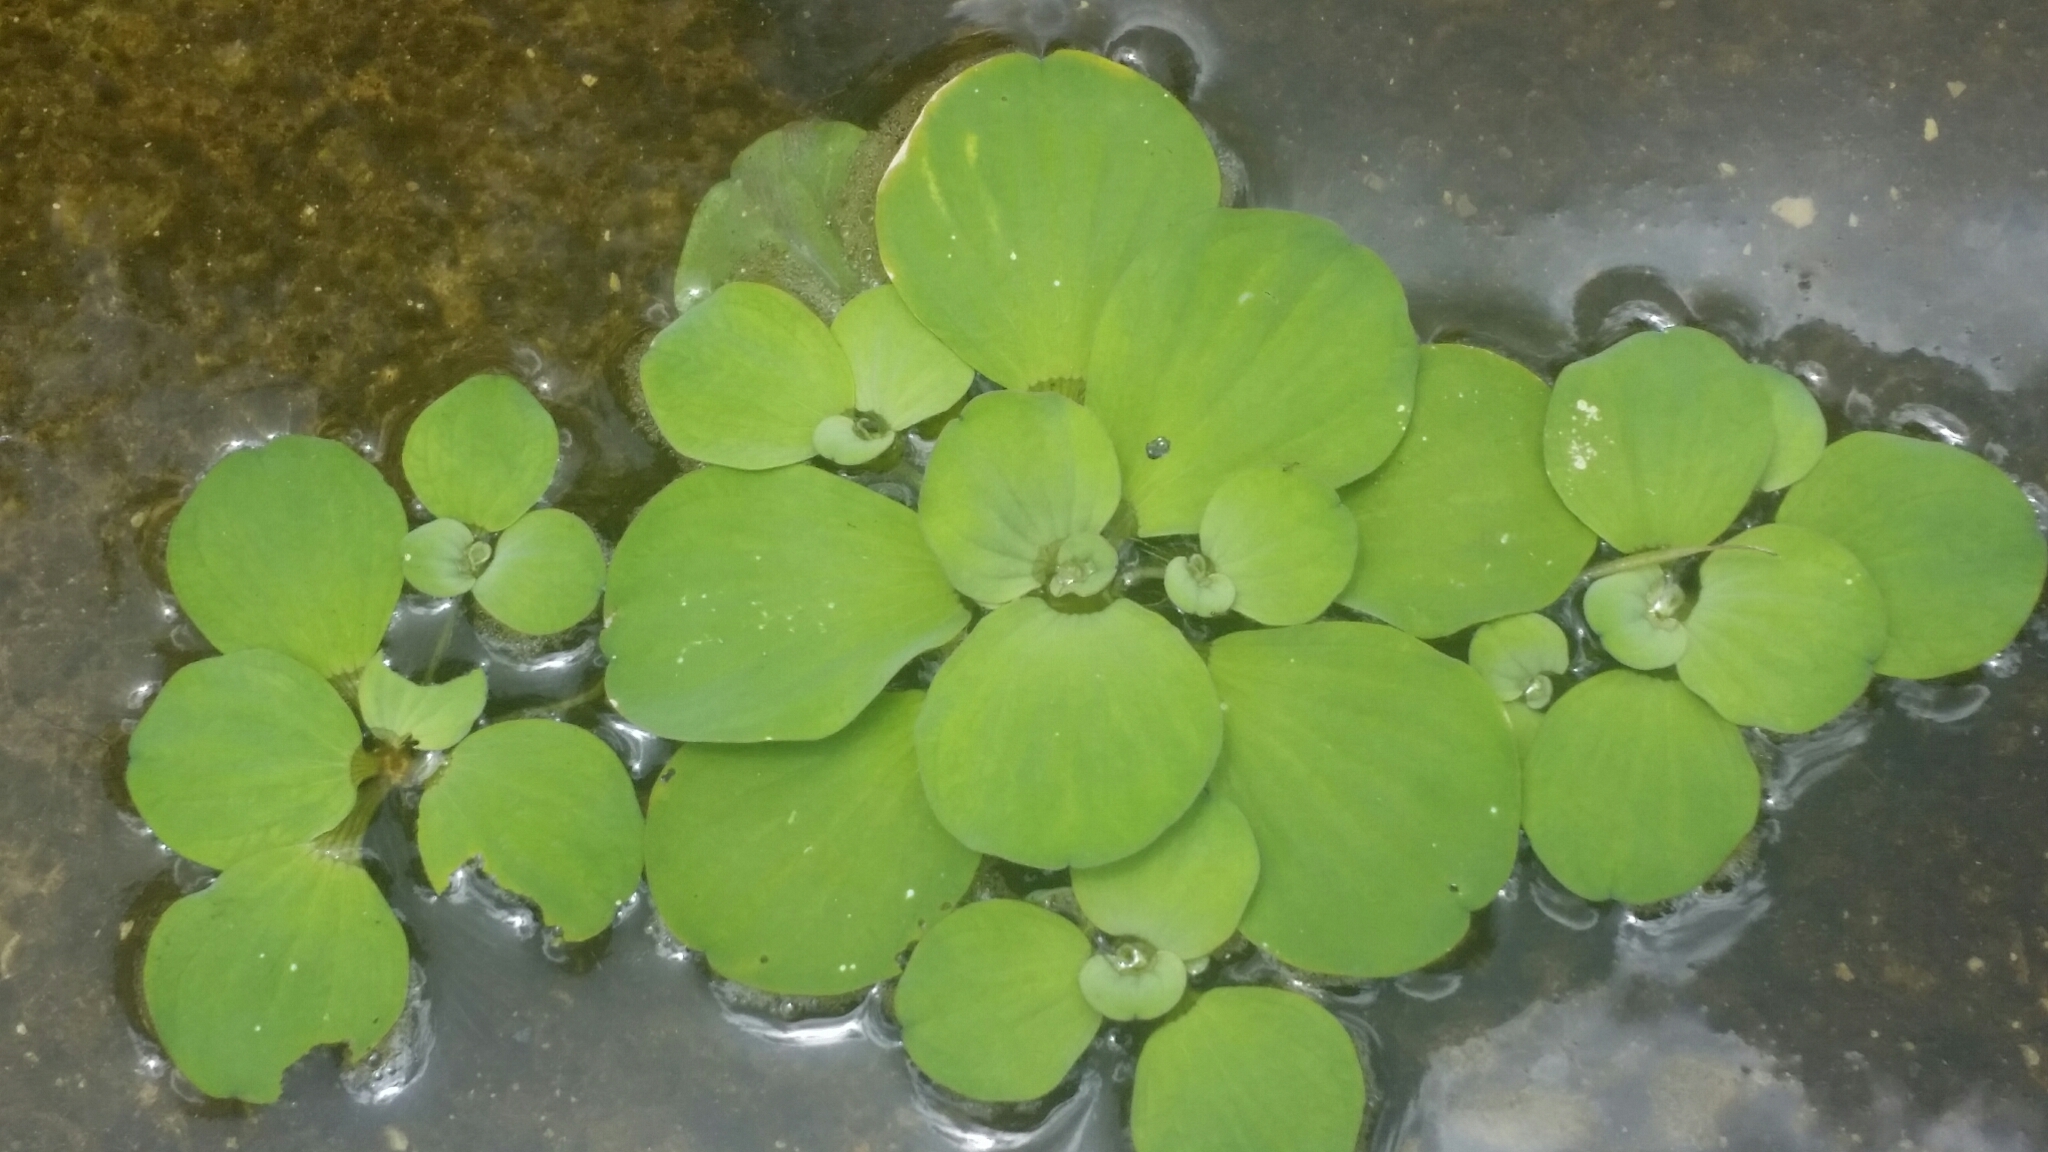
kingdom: Plantae
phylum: Tracheophyta
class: Liliopsida
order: Alismatales
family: Araceae
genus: Pistia
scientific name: Pistia stratiotes
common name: Water lettuce
